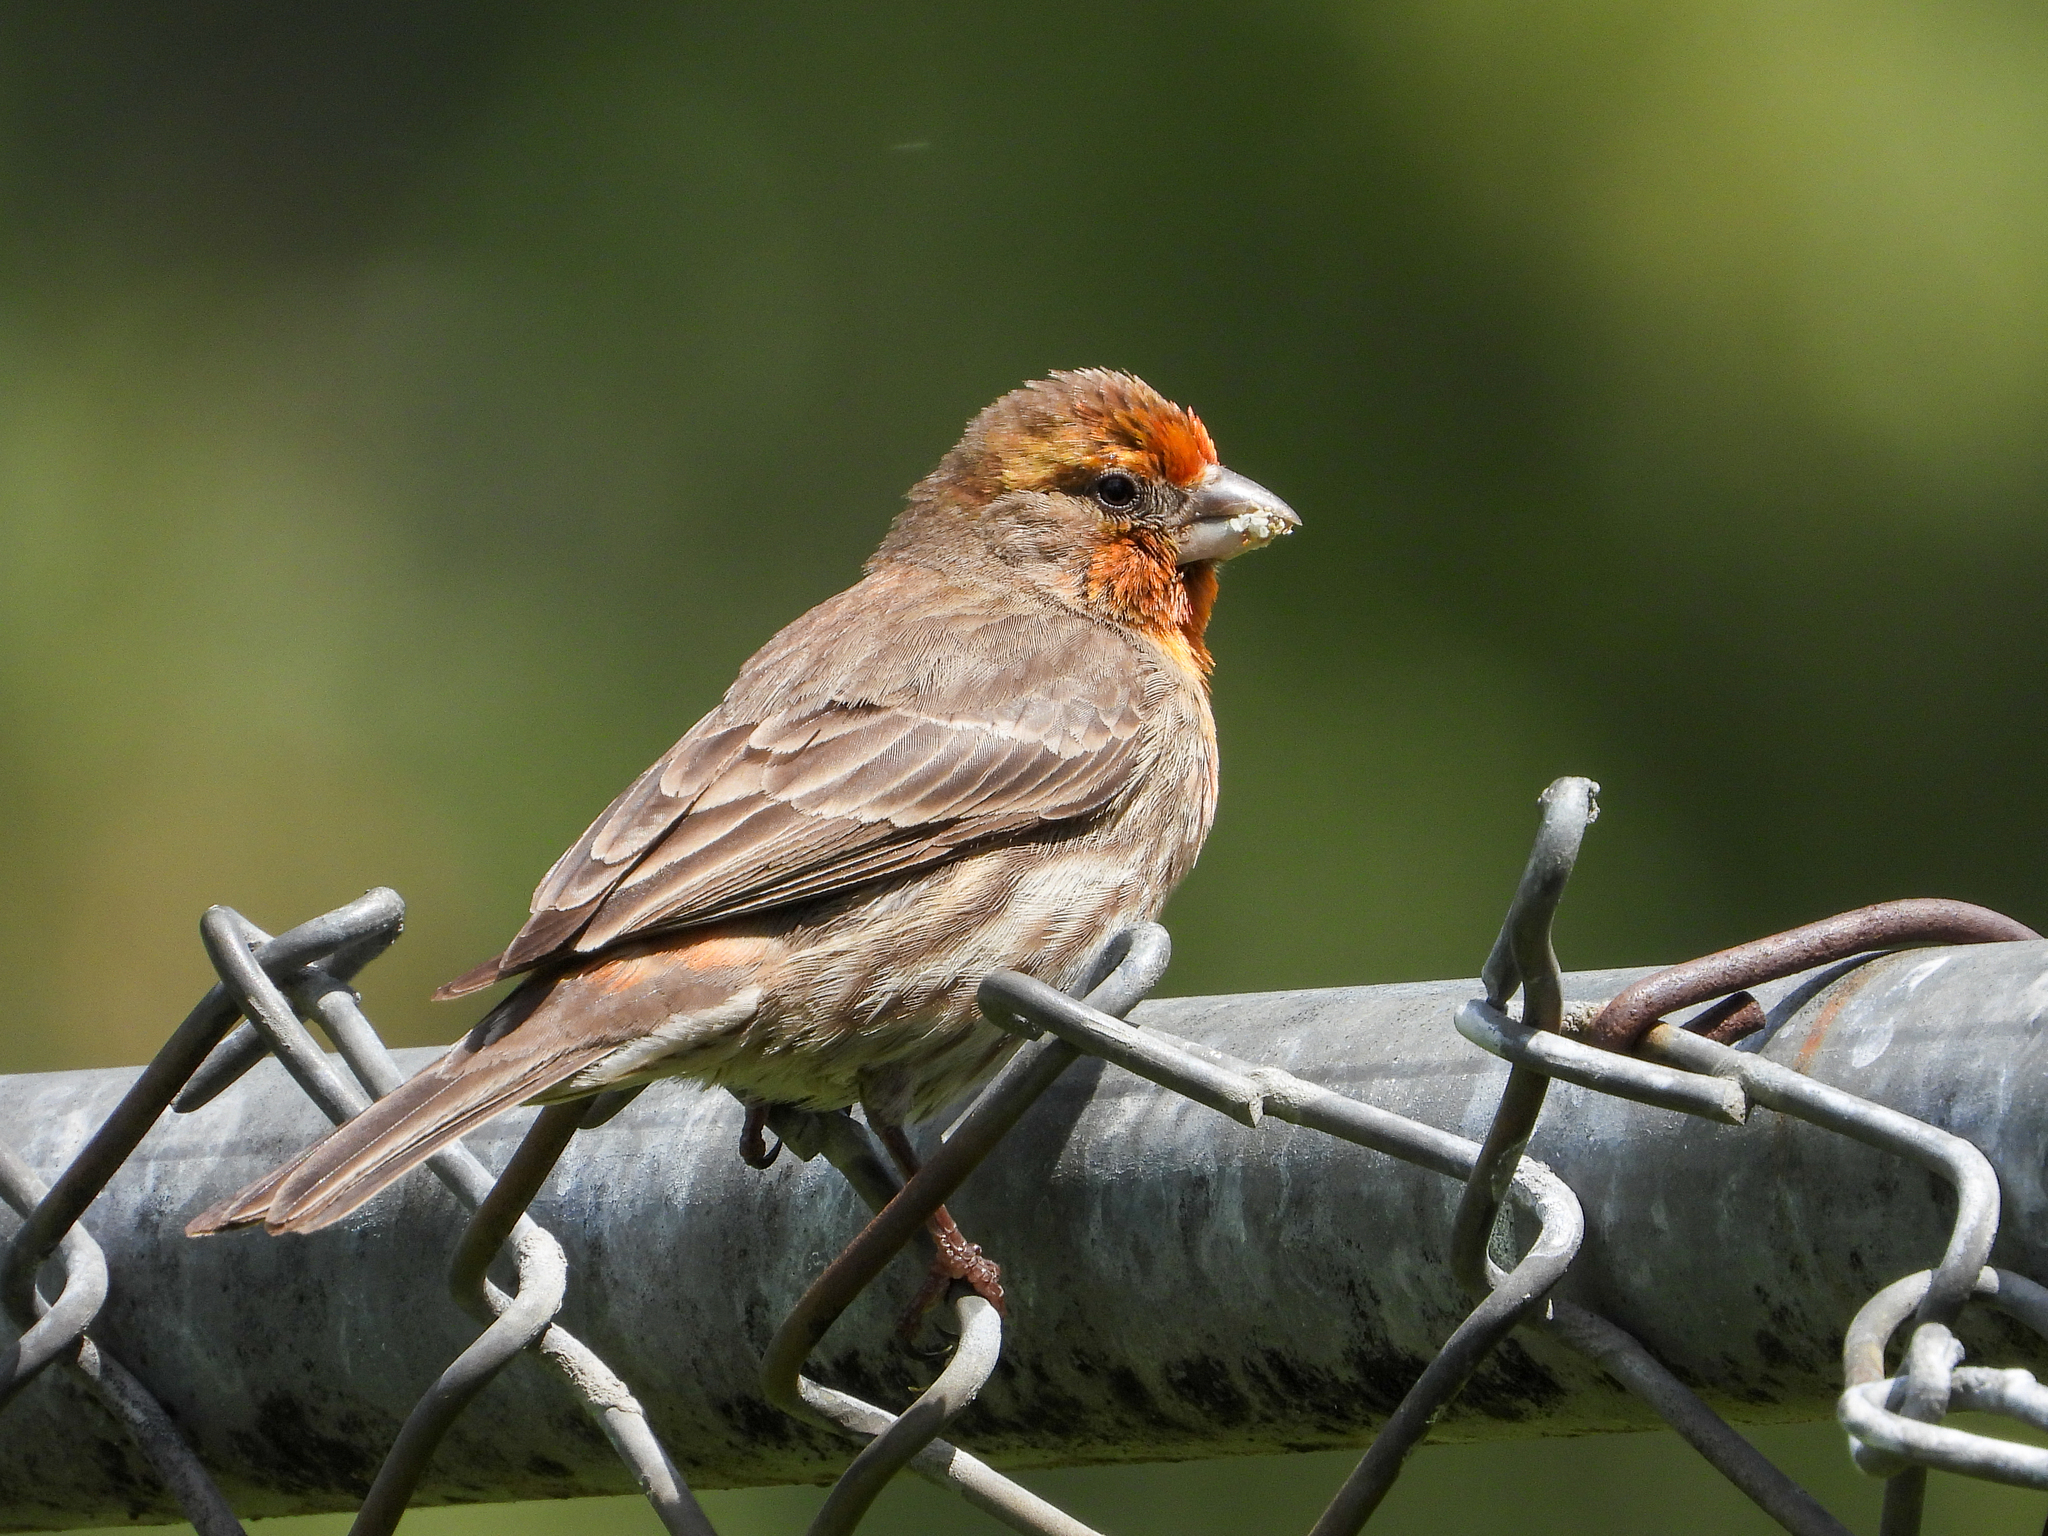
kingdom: Animalia
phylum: Chordata
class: Aves
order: Passeriformes
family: Fringillidae
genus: Haemorhous
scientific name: Haemorhous mexicanus
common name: House finch
